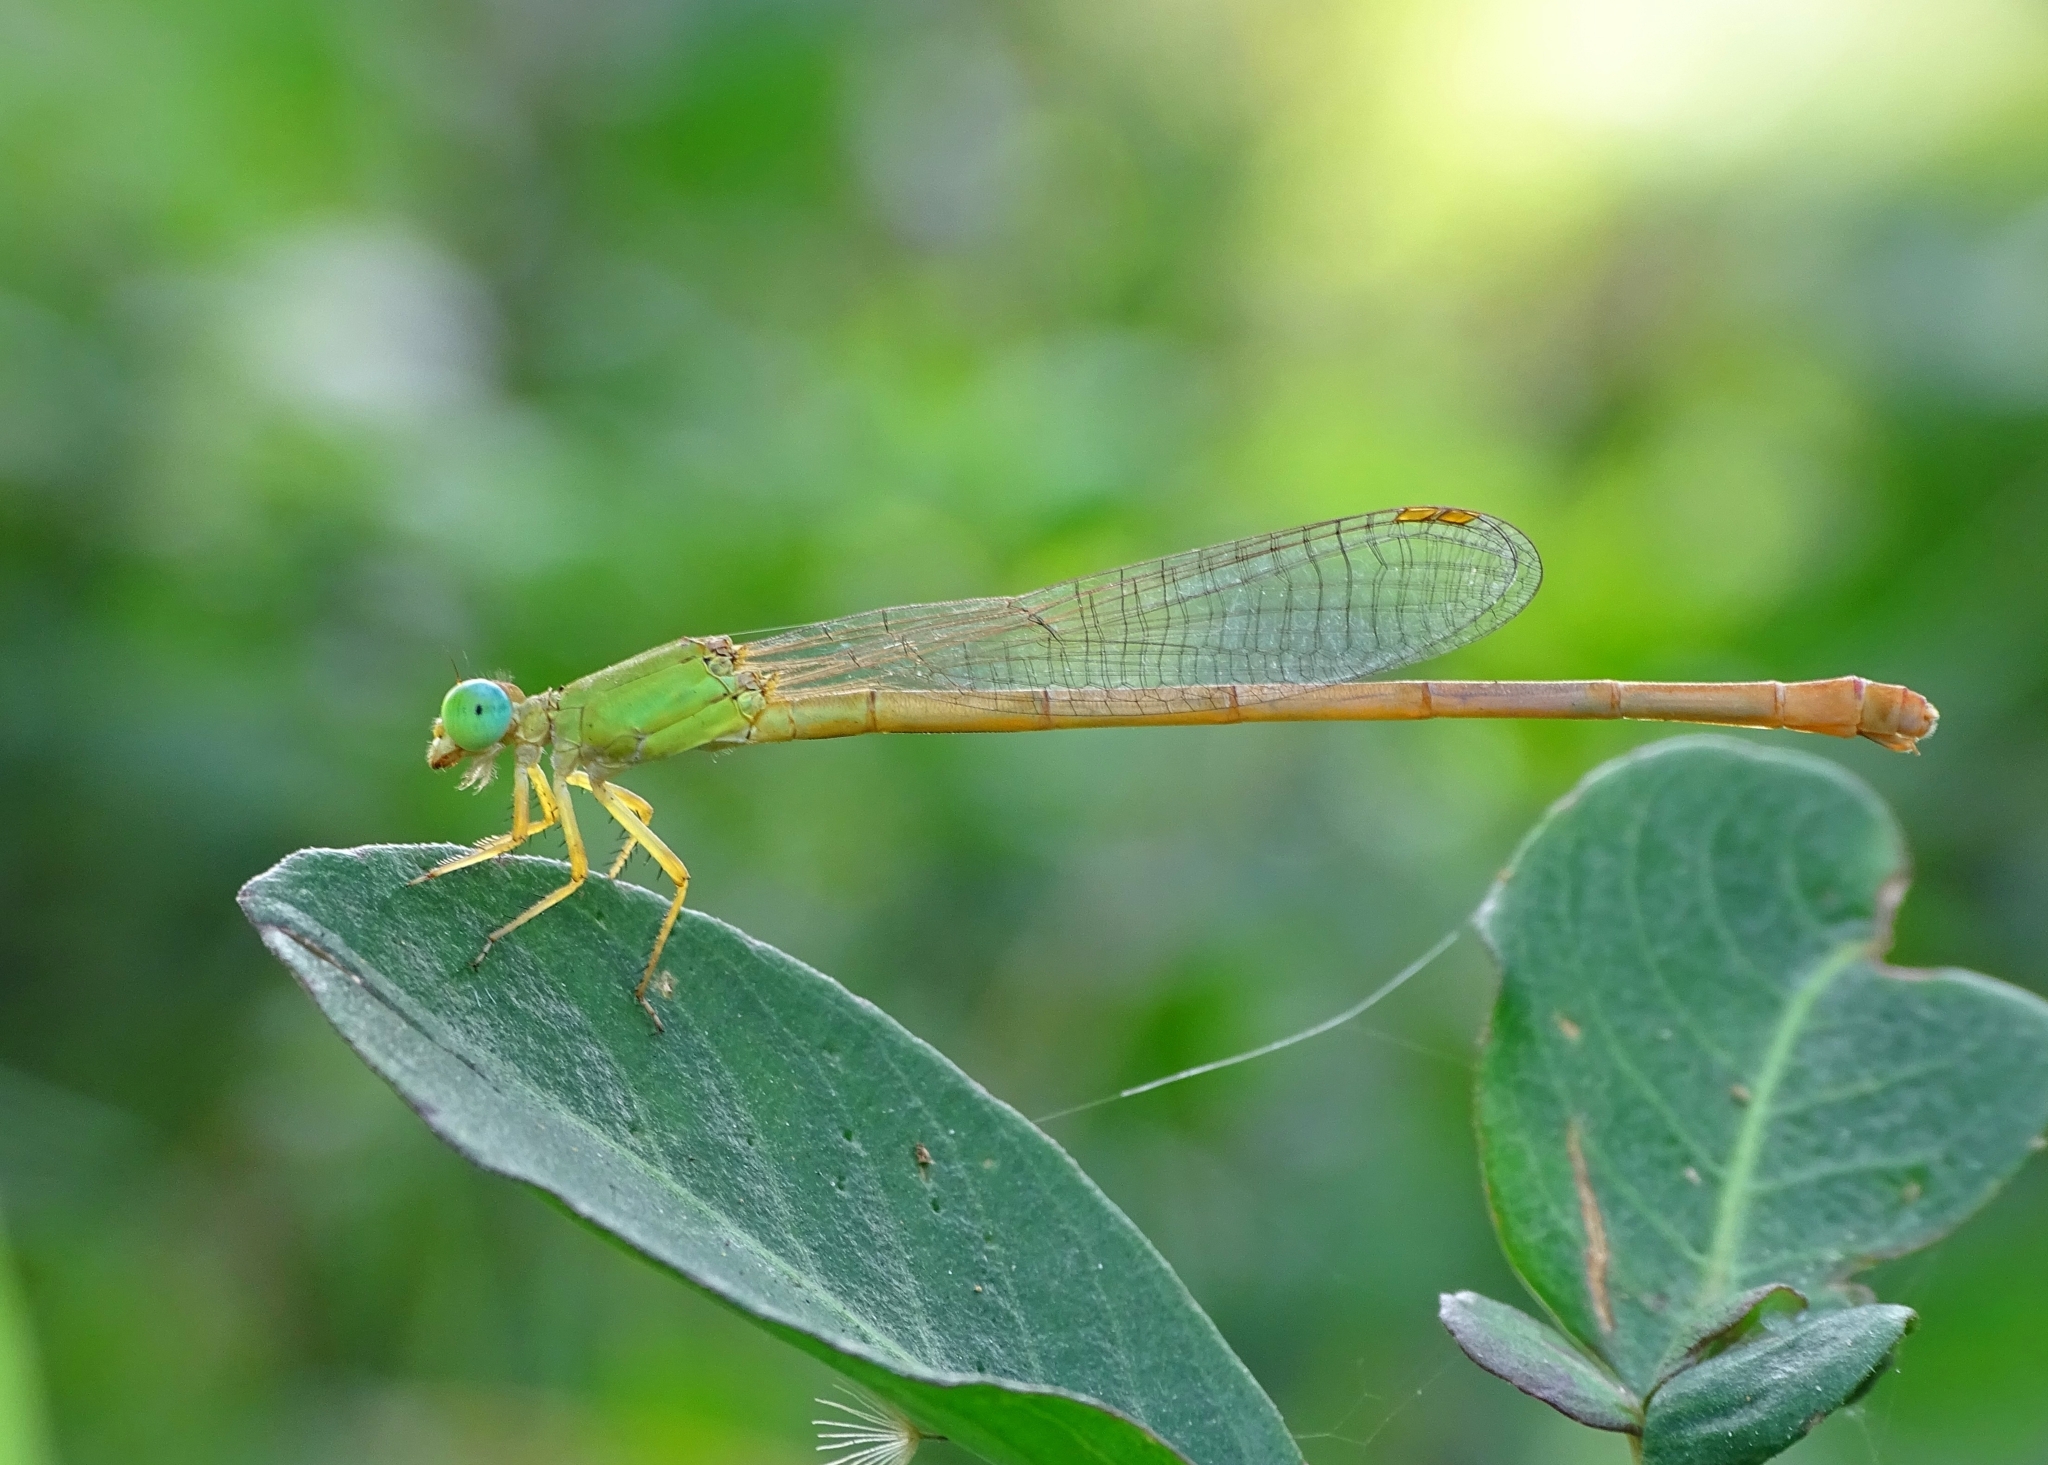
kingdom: Animalia
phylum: Arthropoda
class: Insecta
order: Odonata
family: Coenagrionidae
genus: Ceriagrion
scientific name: Ceriagrion coromandelianum
